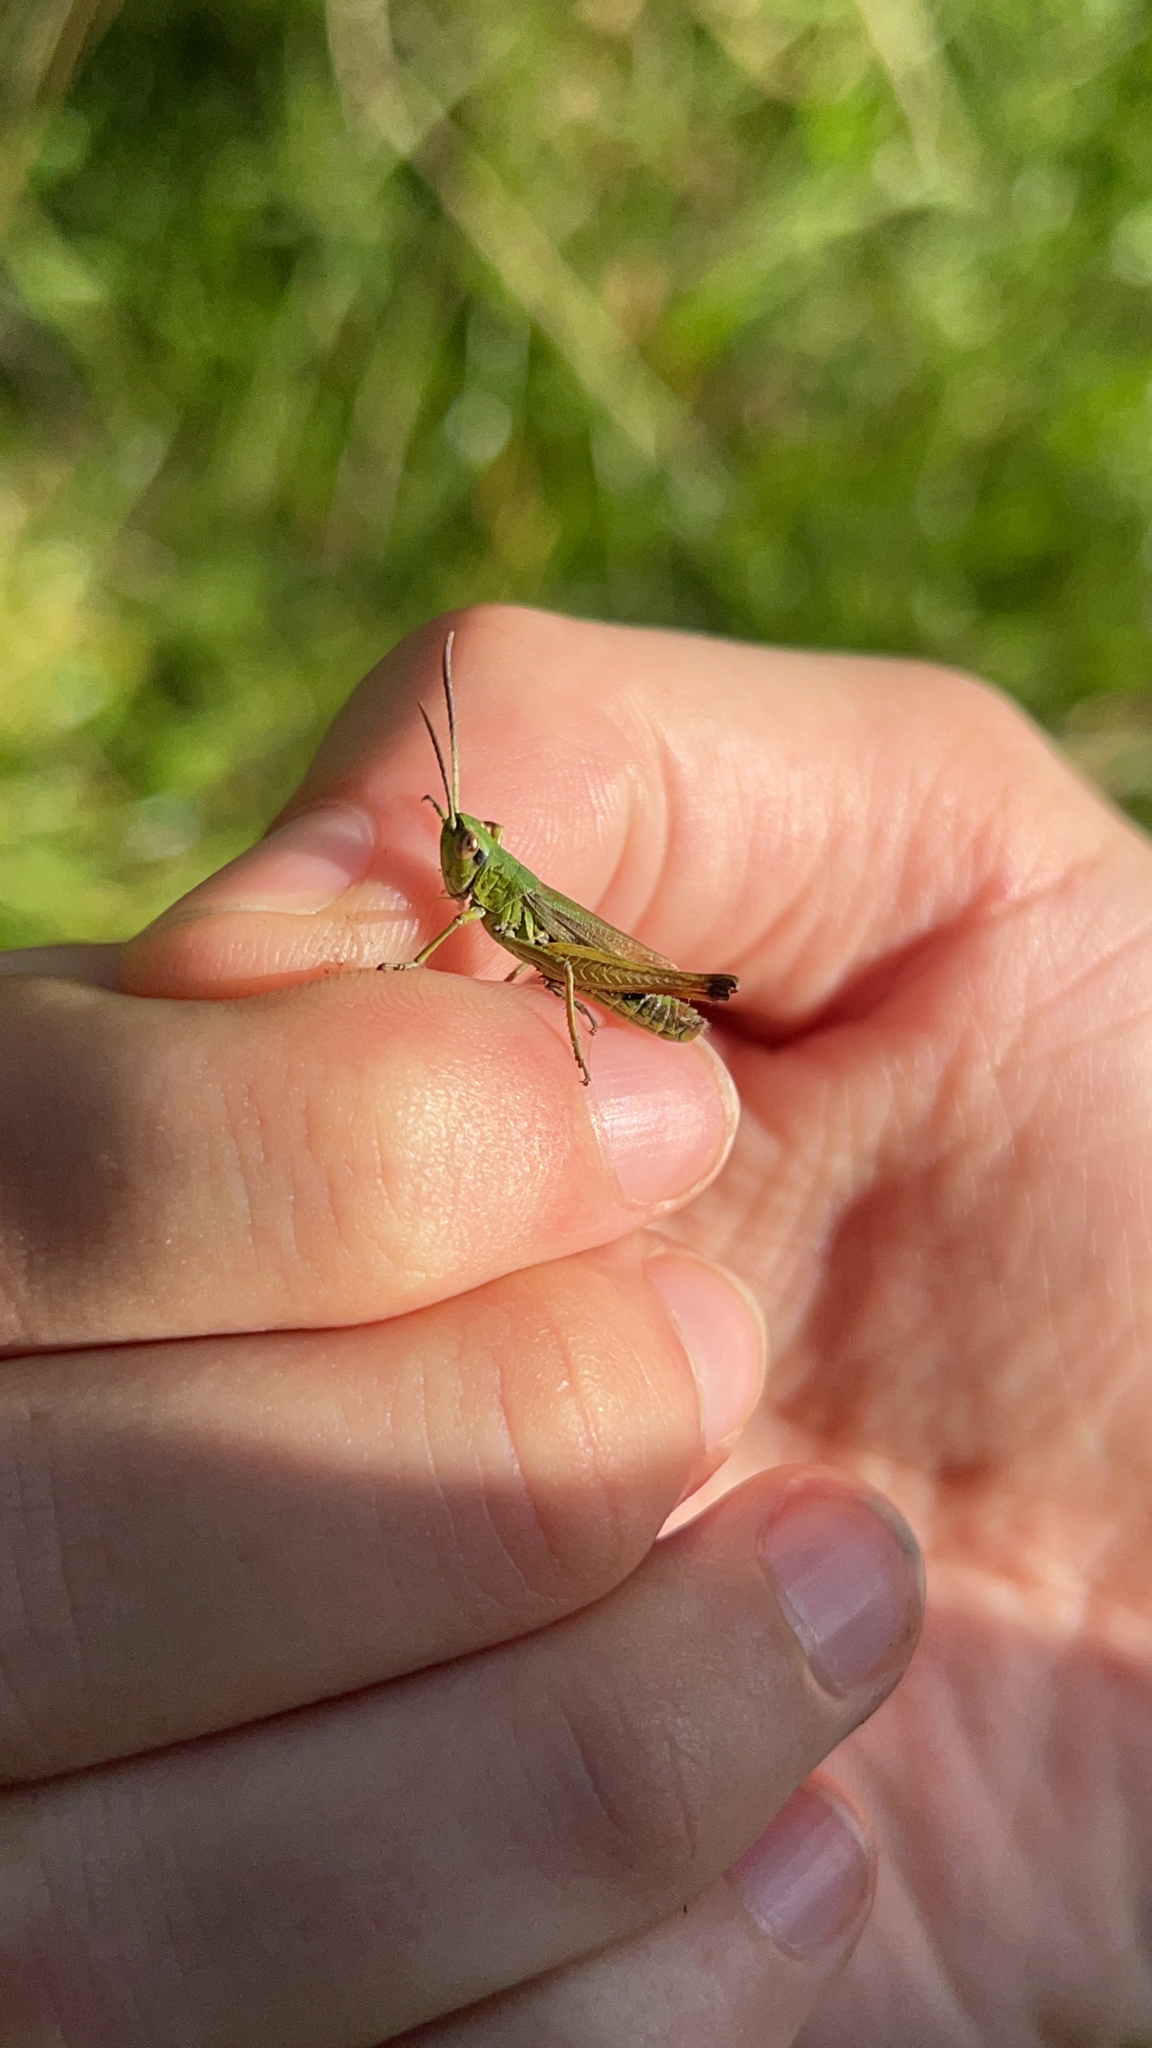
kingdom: Animalia
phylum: Arthropoda
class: Insecta
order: Orthoptera
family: Acrididae
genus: Pseudochorthippus
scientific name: Pseudochorthippus parallelus
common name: Meadow grasshopper
